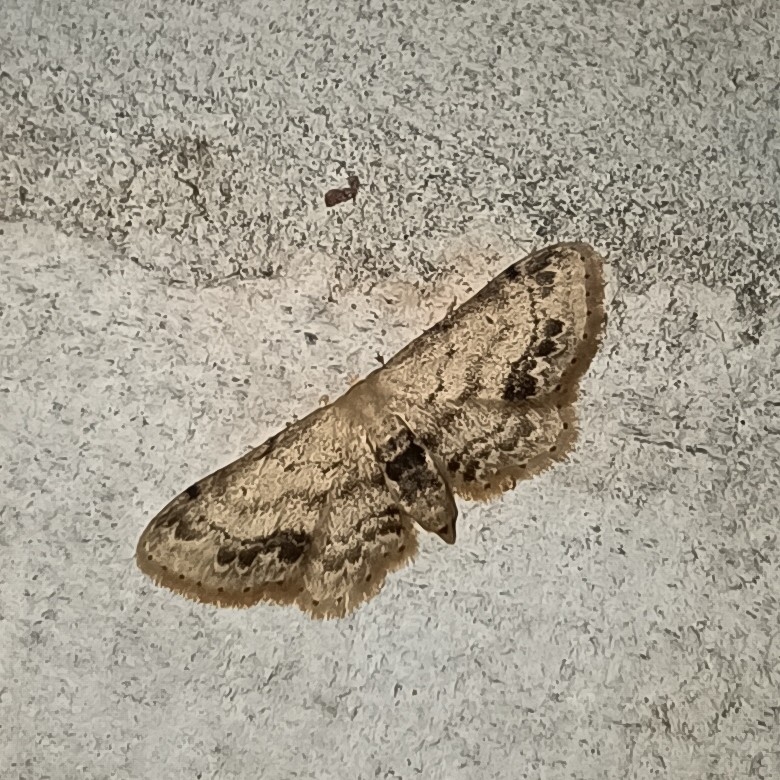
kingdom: Animalia
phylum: Arthropoda
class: Insecta
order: Lepidoptera
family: Geometridae
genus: Idaea
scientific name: Idaea dimidiata
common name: Single-dotted wave
